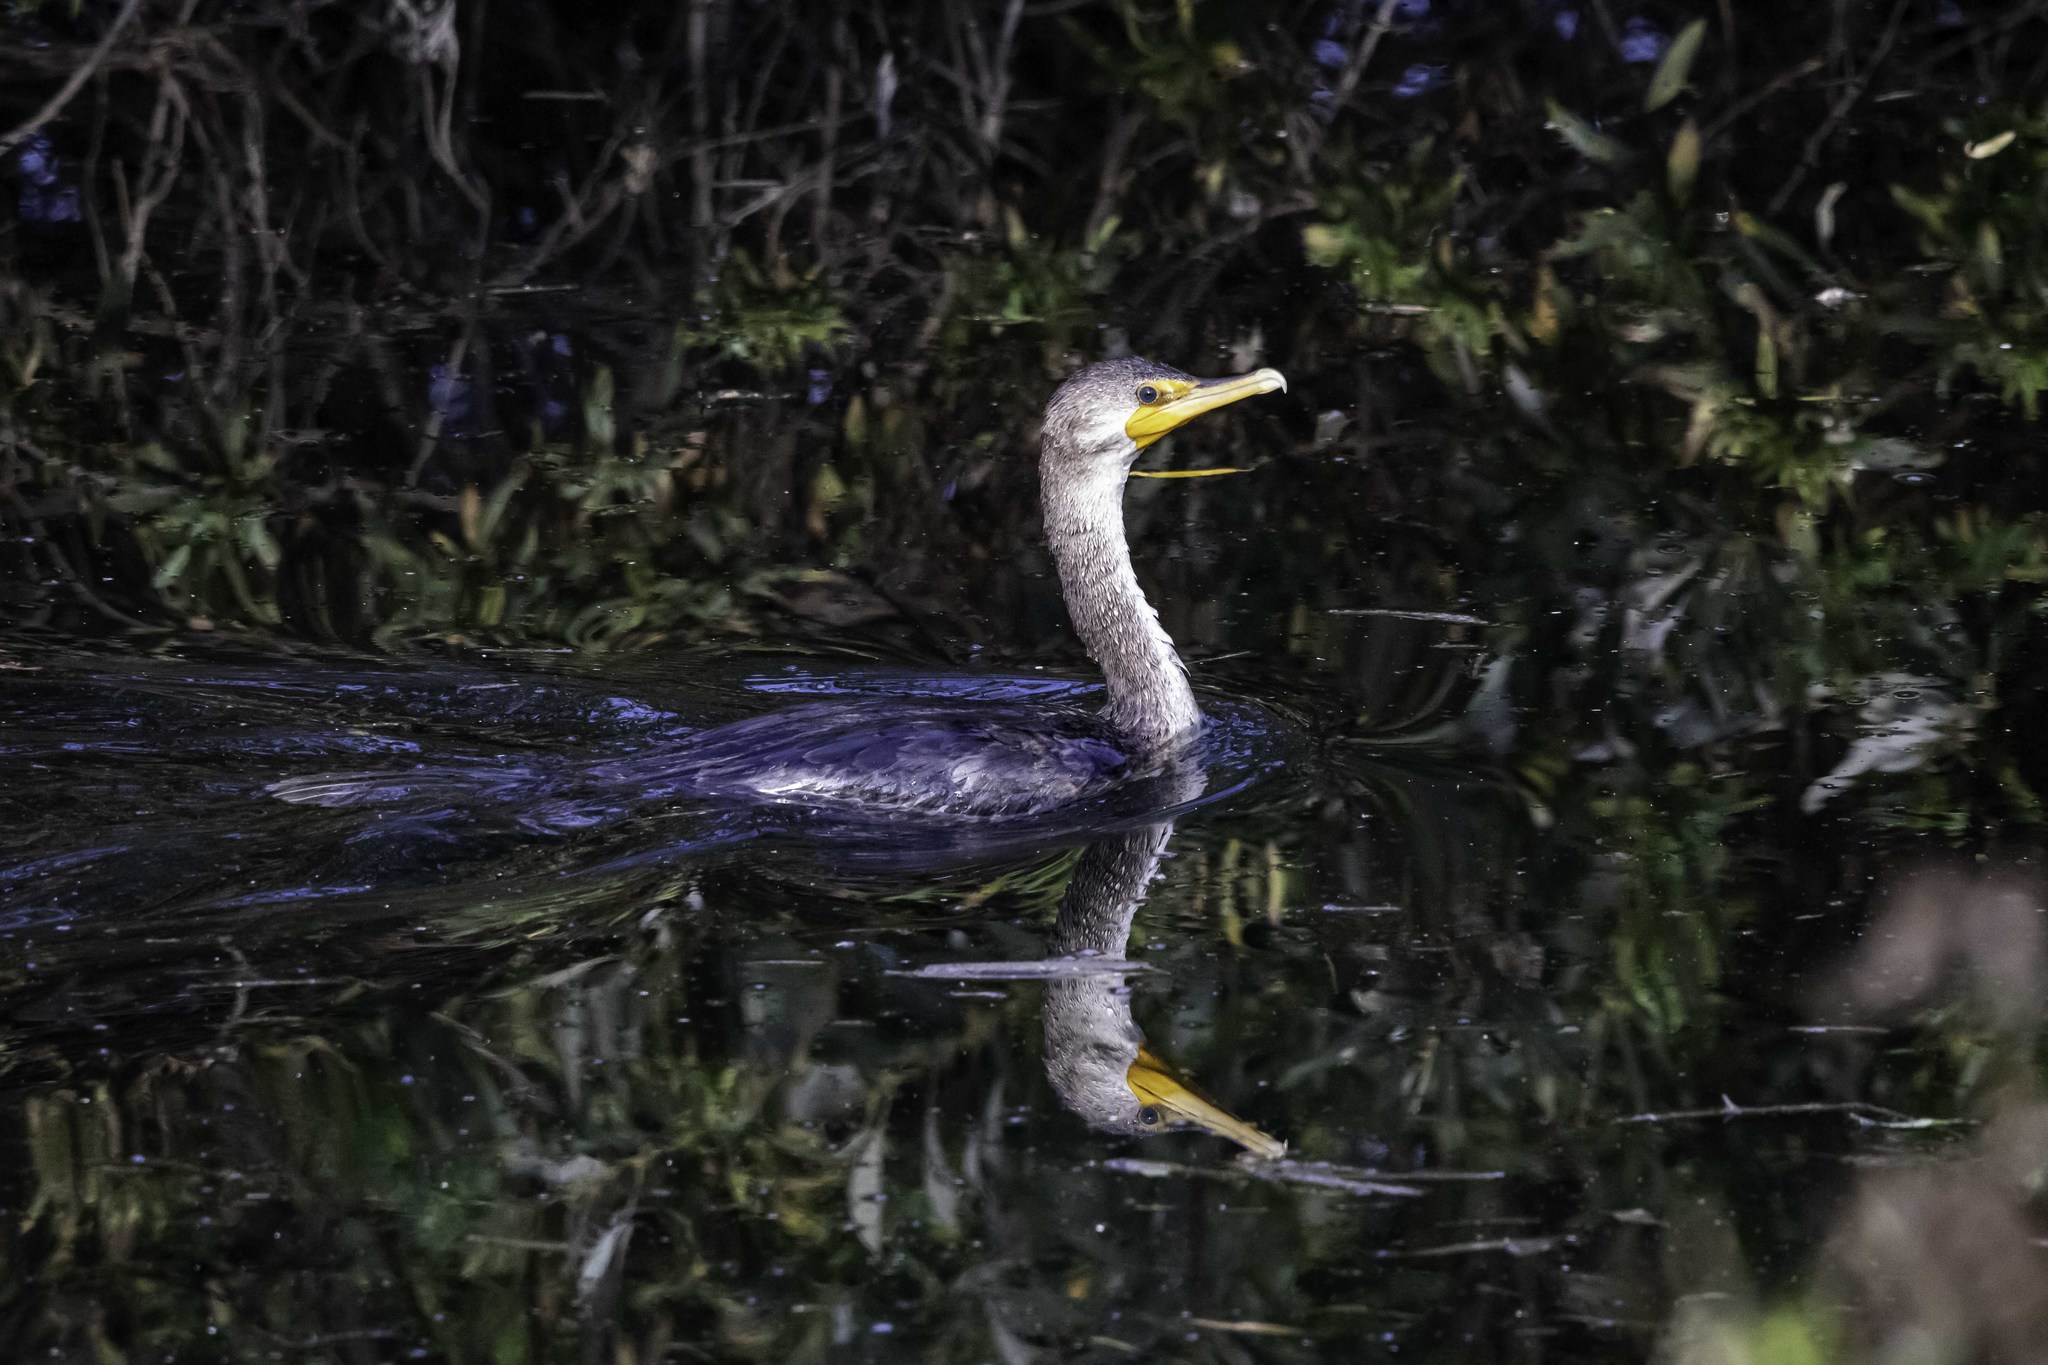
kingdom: Animalia
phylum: Chordata
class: Aves
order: Suliformes
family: Phalacrocoracidae
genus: Phalacrocorax
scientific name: Phalacrocorax auritus
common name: Double-crested cormorant
